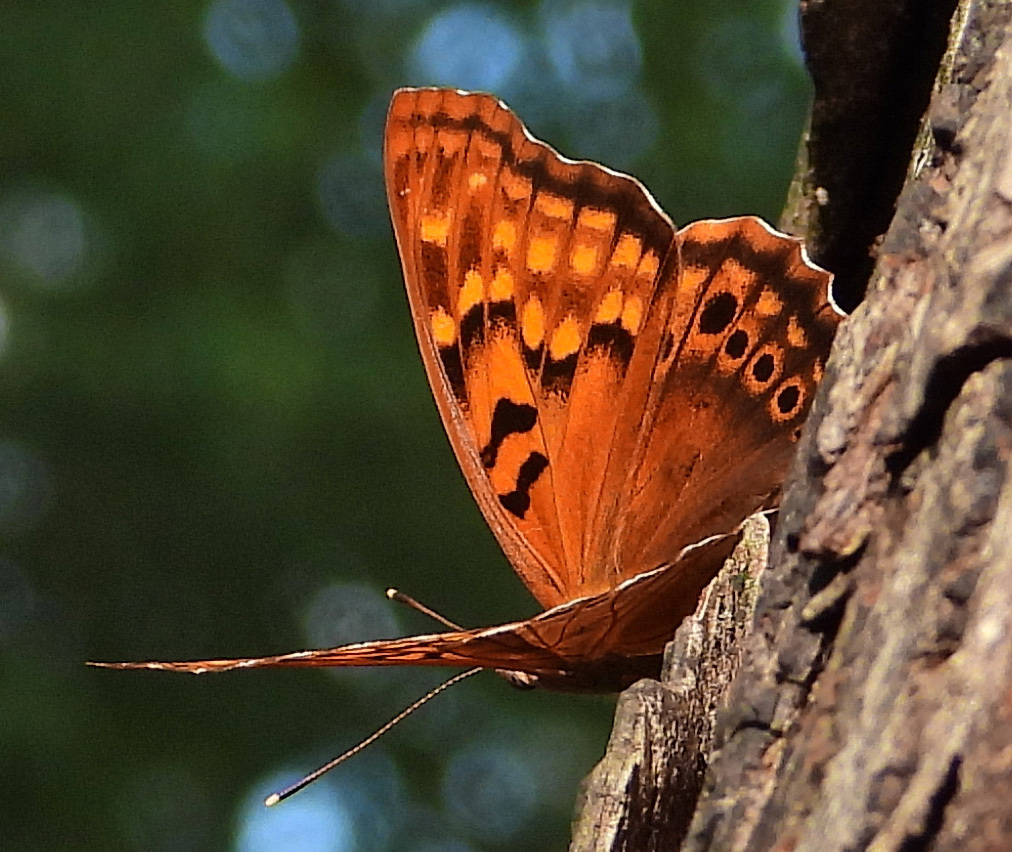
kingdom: Animalia
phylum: Arthropoda
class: Insecta
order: Lepidoptera
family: Nymphalidae
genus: Asterocampa
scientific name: Asterocampa clyton
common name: Tawny emperor
